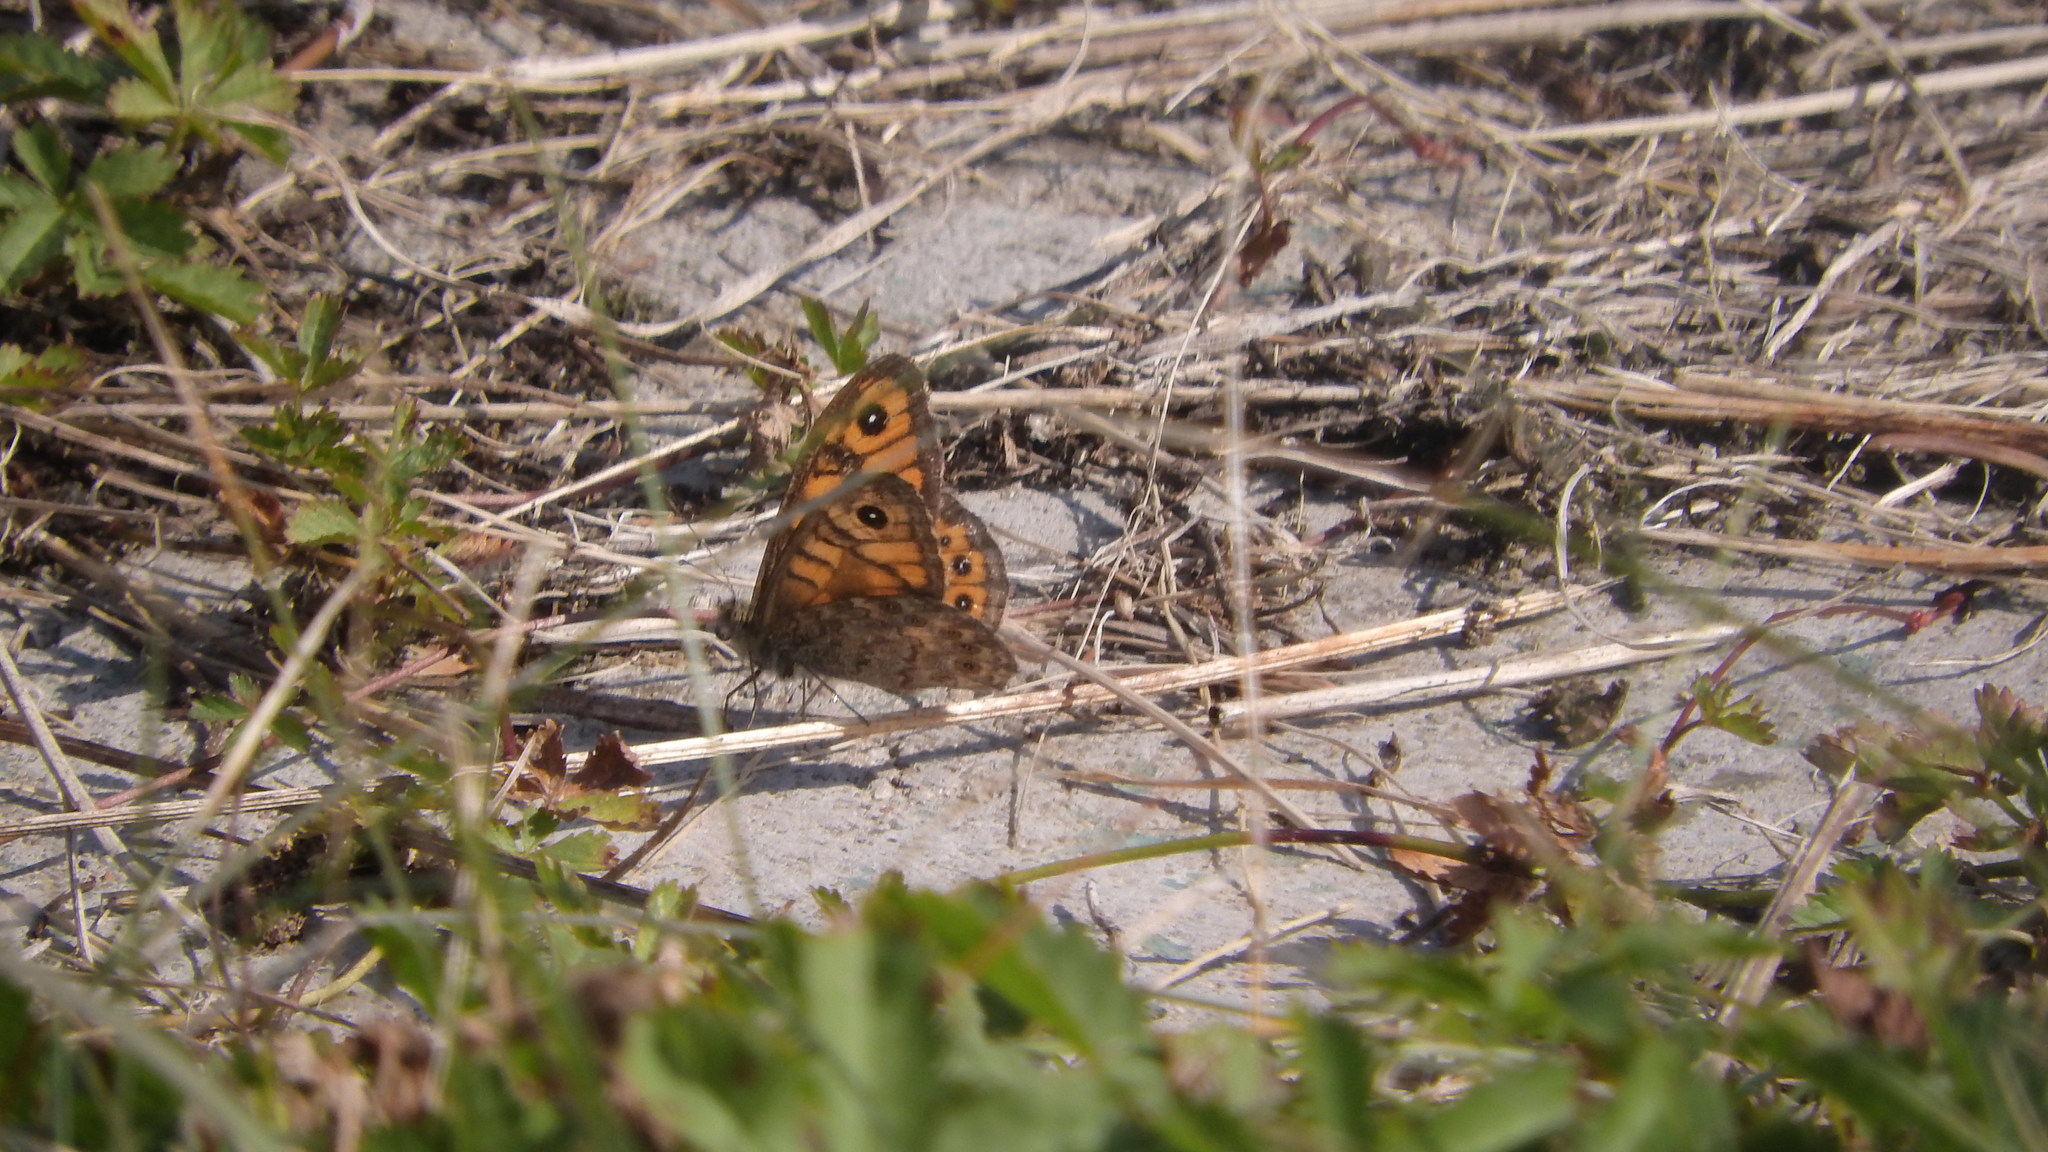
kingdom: Animalia
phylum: Arthropoda
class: Insecta
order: Lepidoptera
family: Nymphalidae
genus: Pararge
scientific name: Pararge Lasiommata megera
